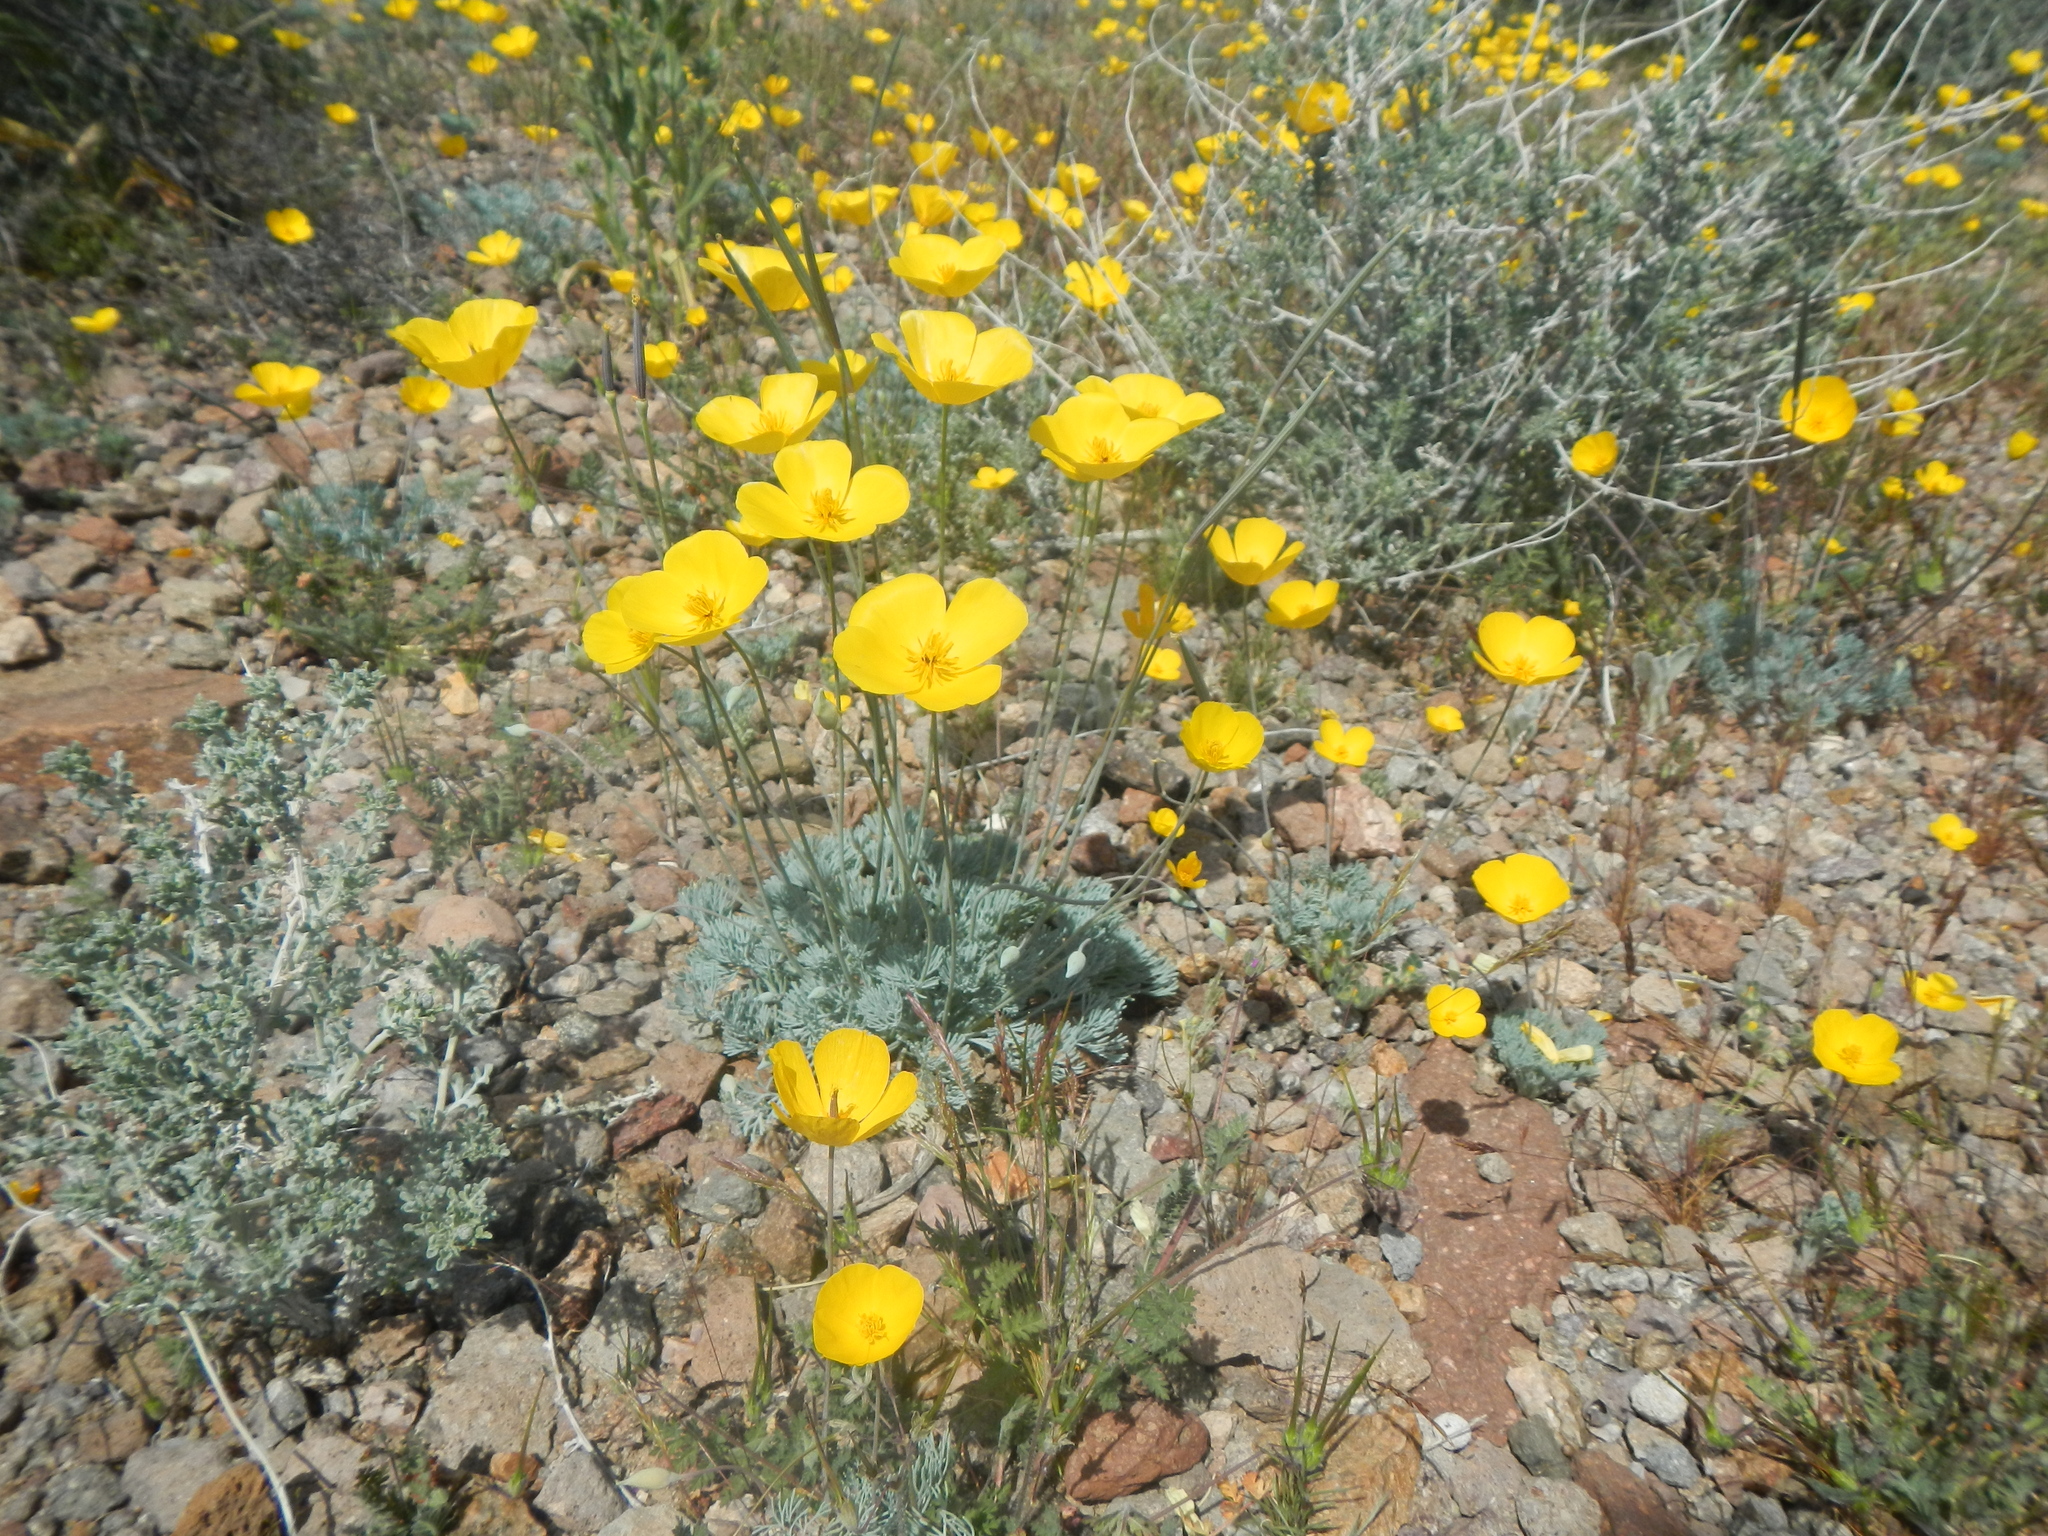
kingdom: Plantae
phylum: Tracheophyta
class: Magnoliopsida
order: Ranunculales
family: Papaveraceae
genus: Eschscholzia
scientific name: Eschscholzia glyptosperma
